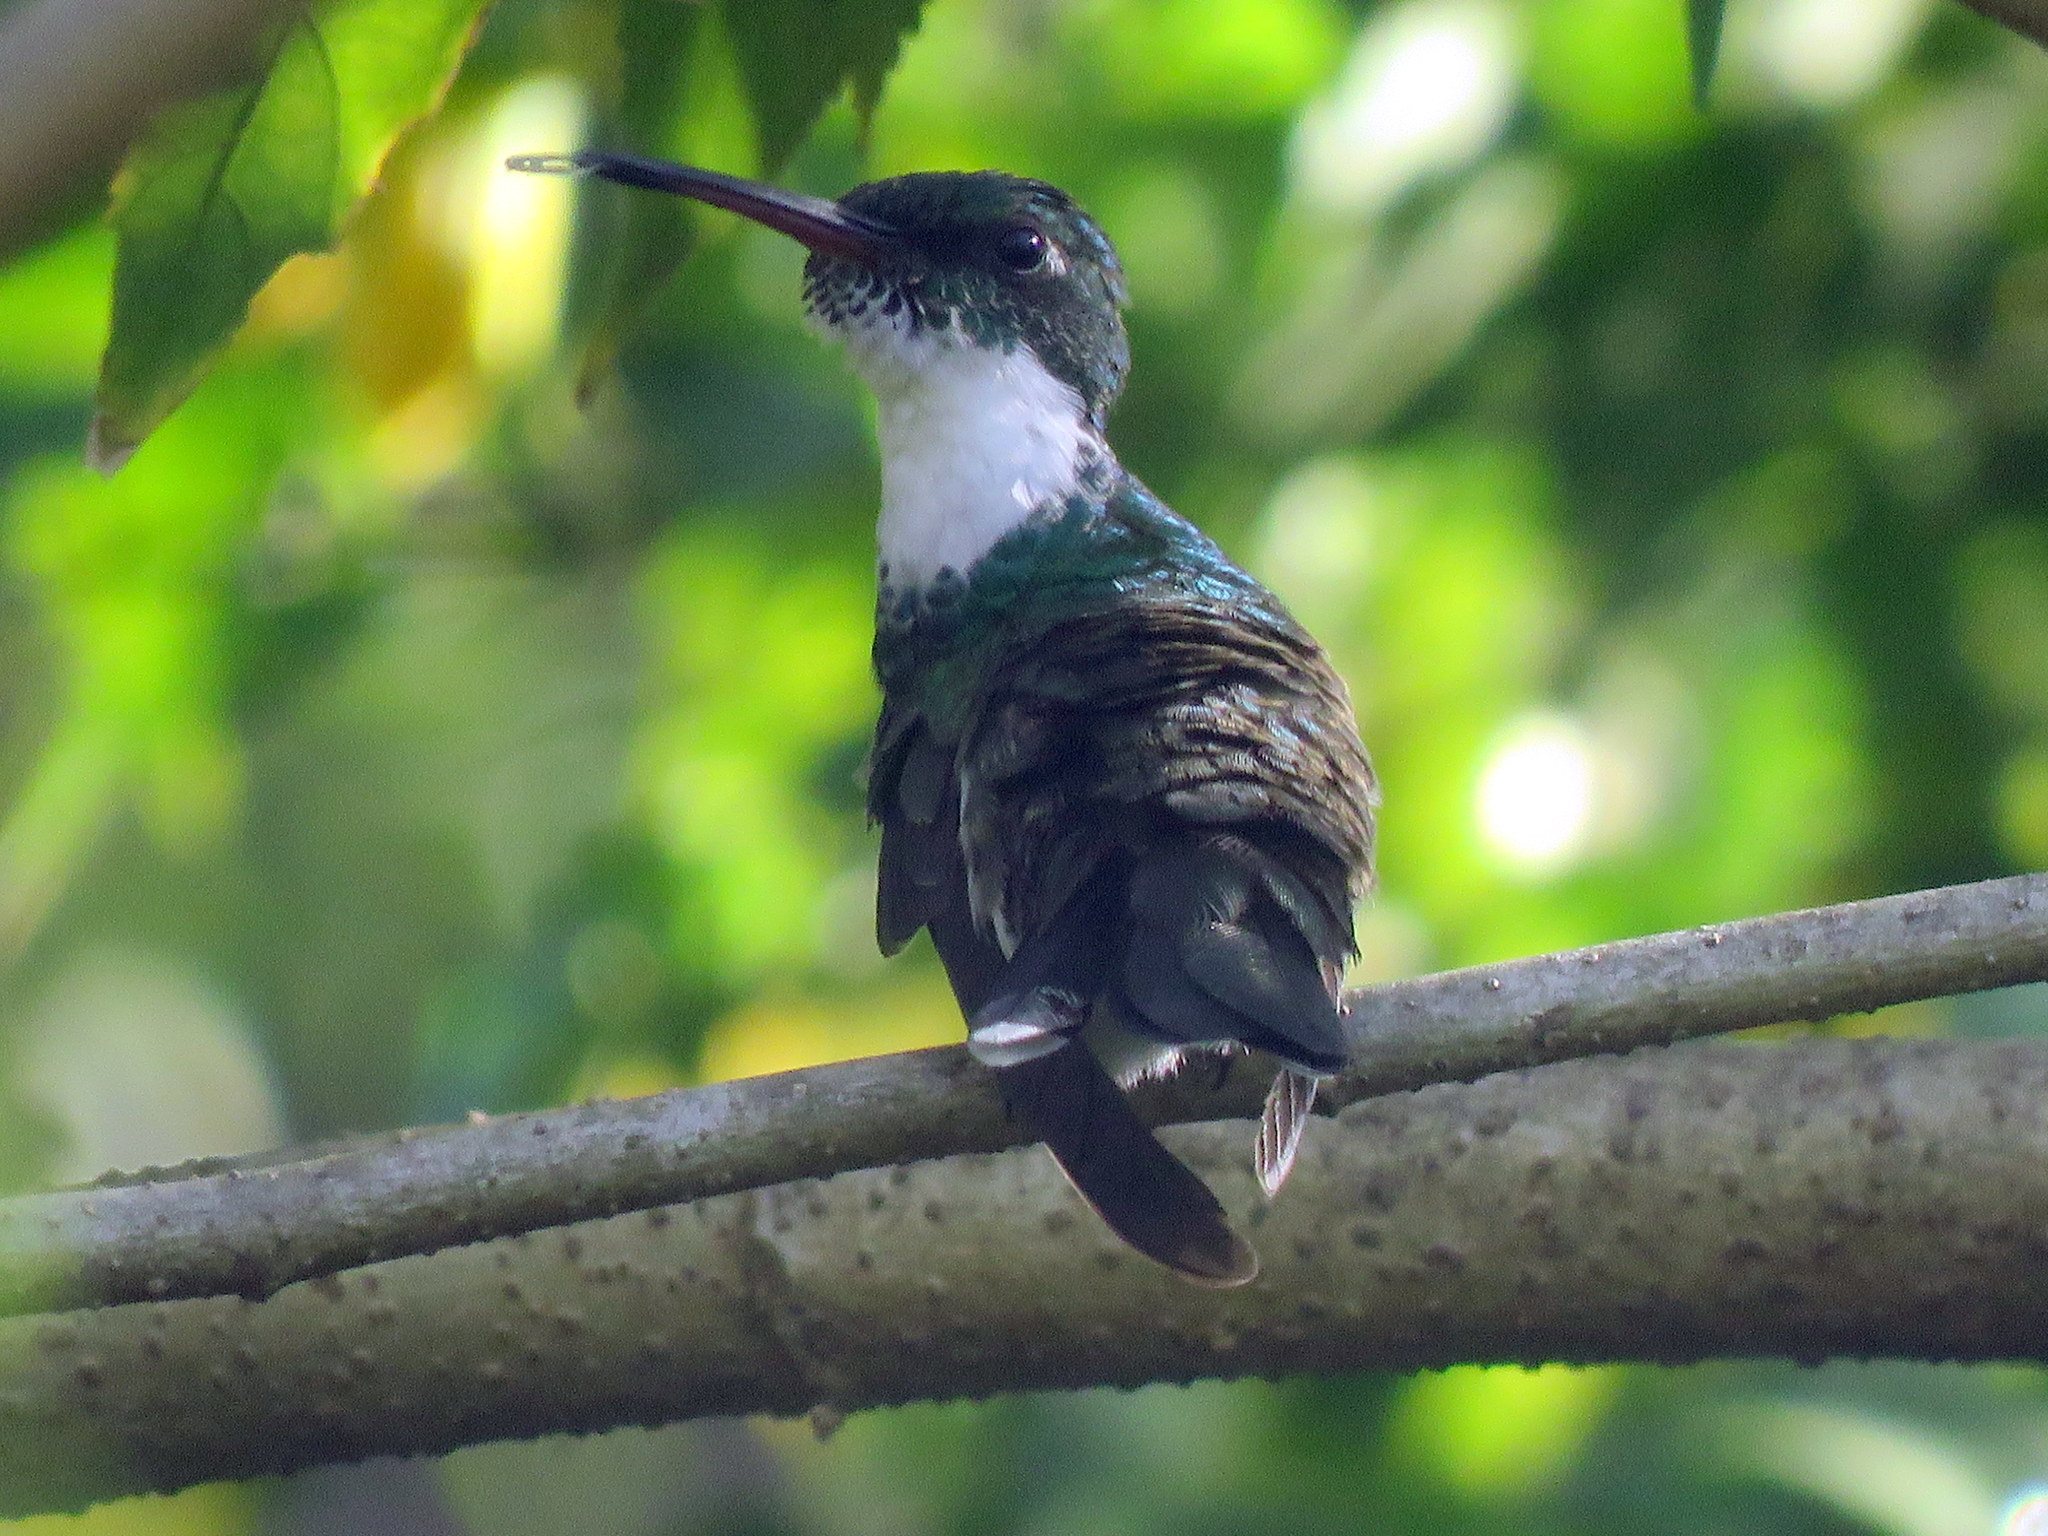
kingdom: Animalia
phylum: Chordata
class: Aves
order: Apodiformes
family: Trochilidae
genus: Leucochloris
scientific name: Leucochloris albicollis
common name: White-throated hummingbird
